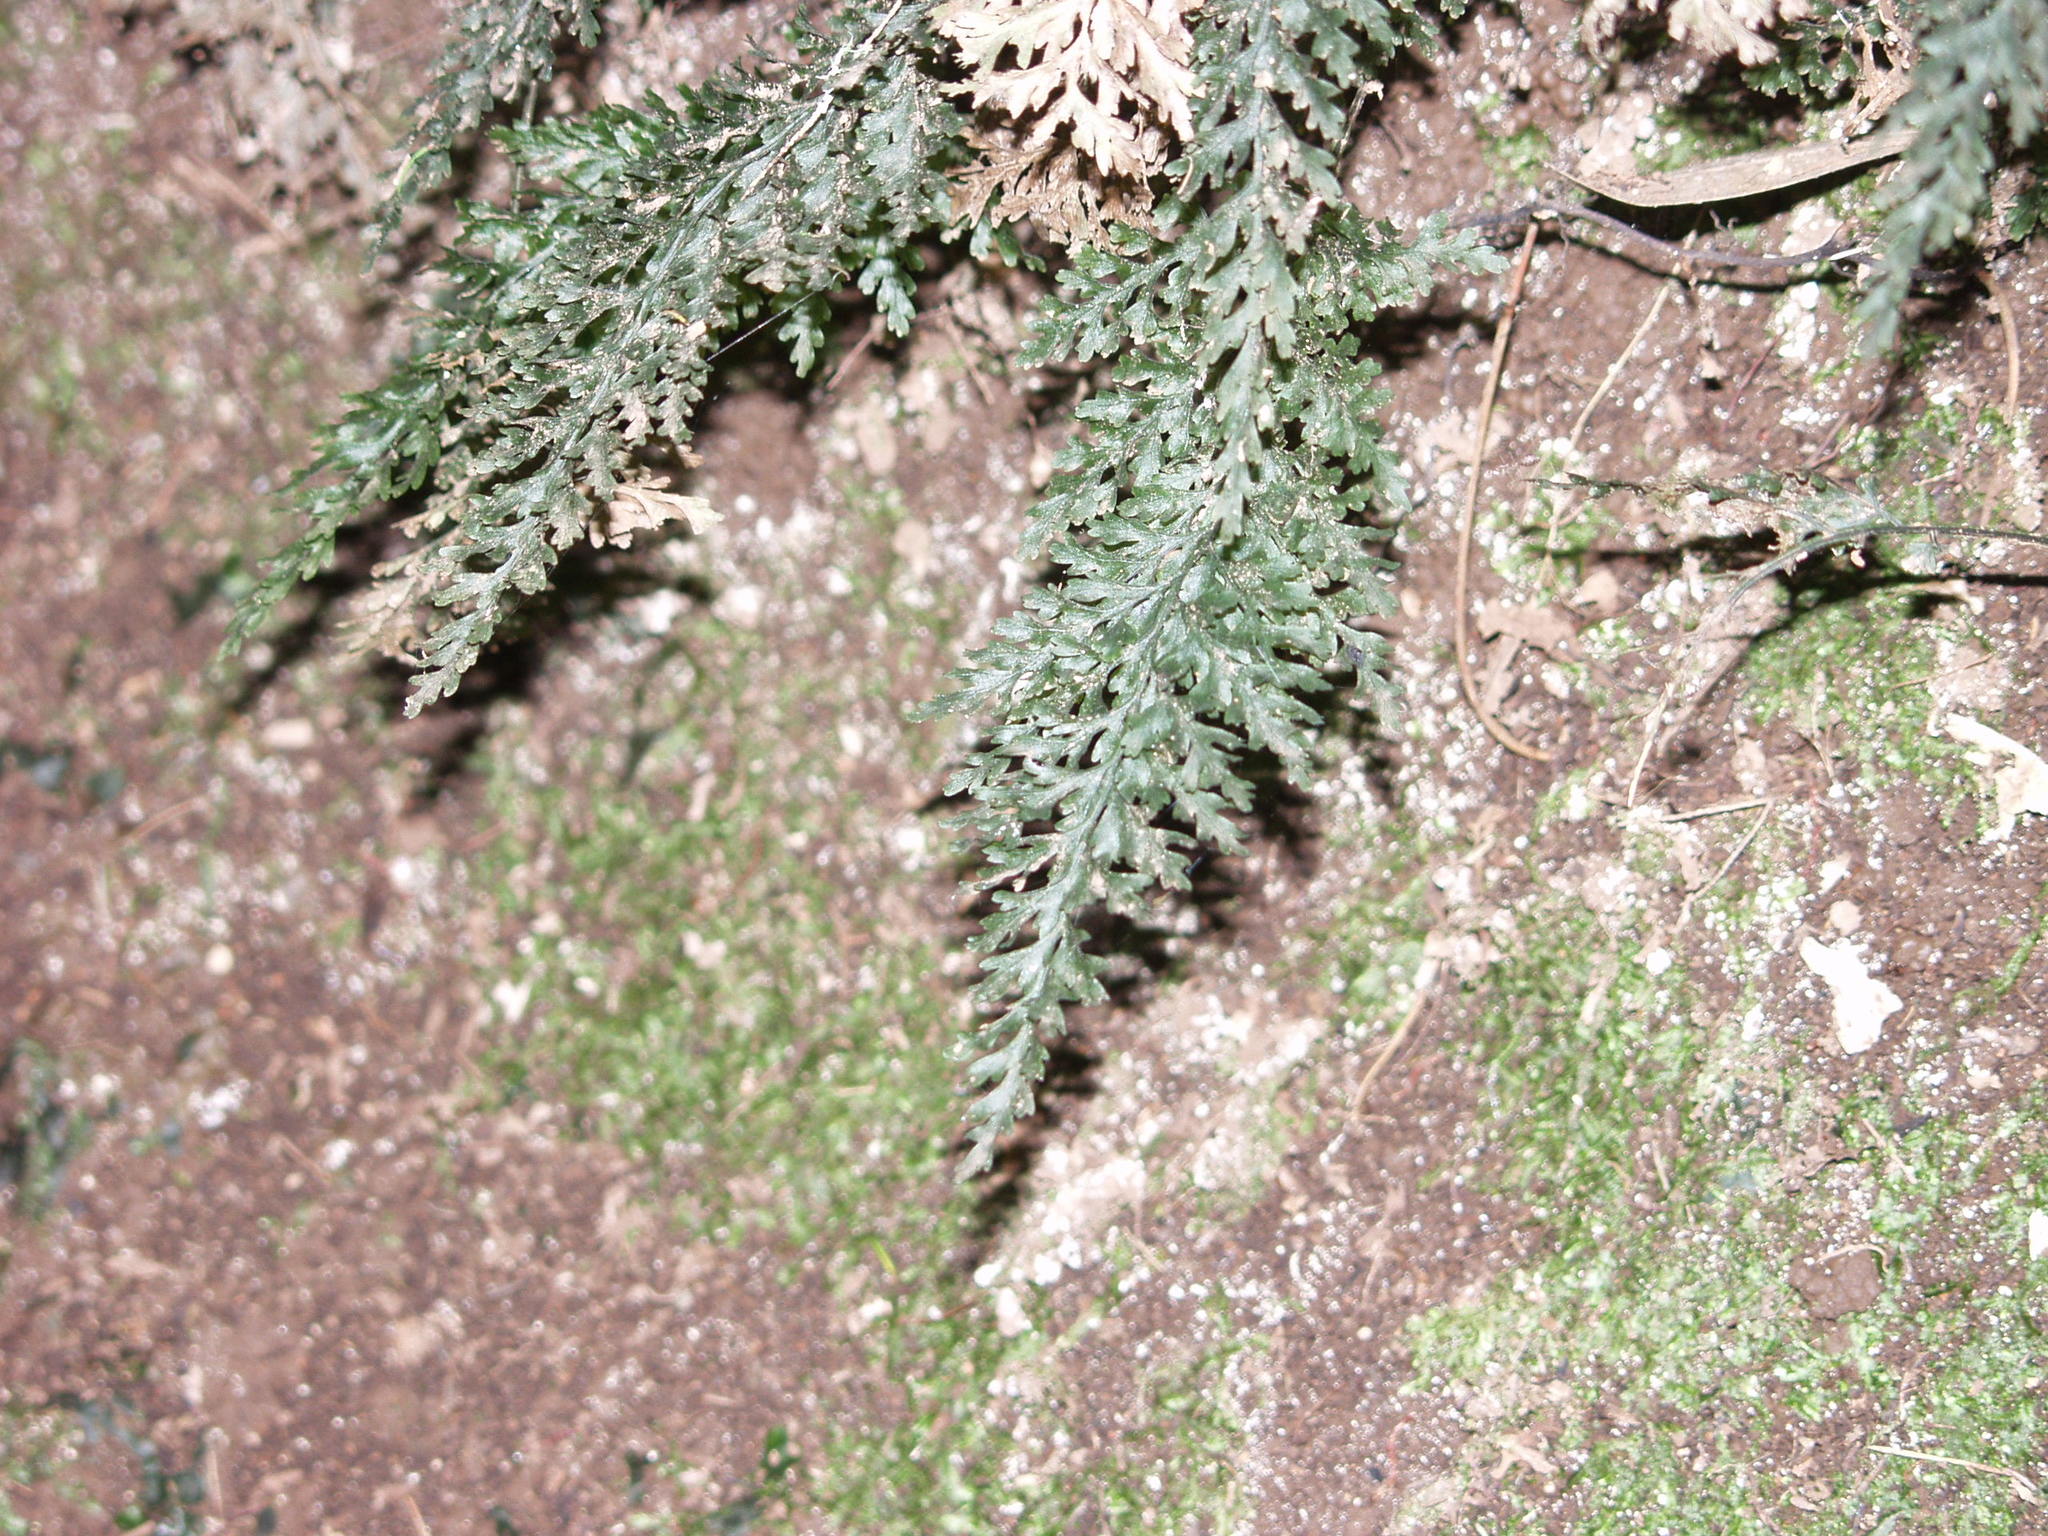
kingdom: Plantae
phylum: Tracheophyta
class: Polypodiopsida
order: Hymenophyllales
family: Hymenophyllaceae
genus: Vandenboschia
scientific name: Vandenboschia speciosa
